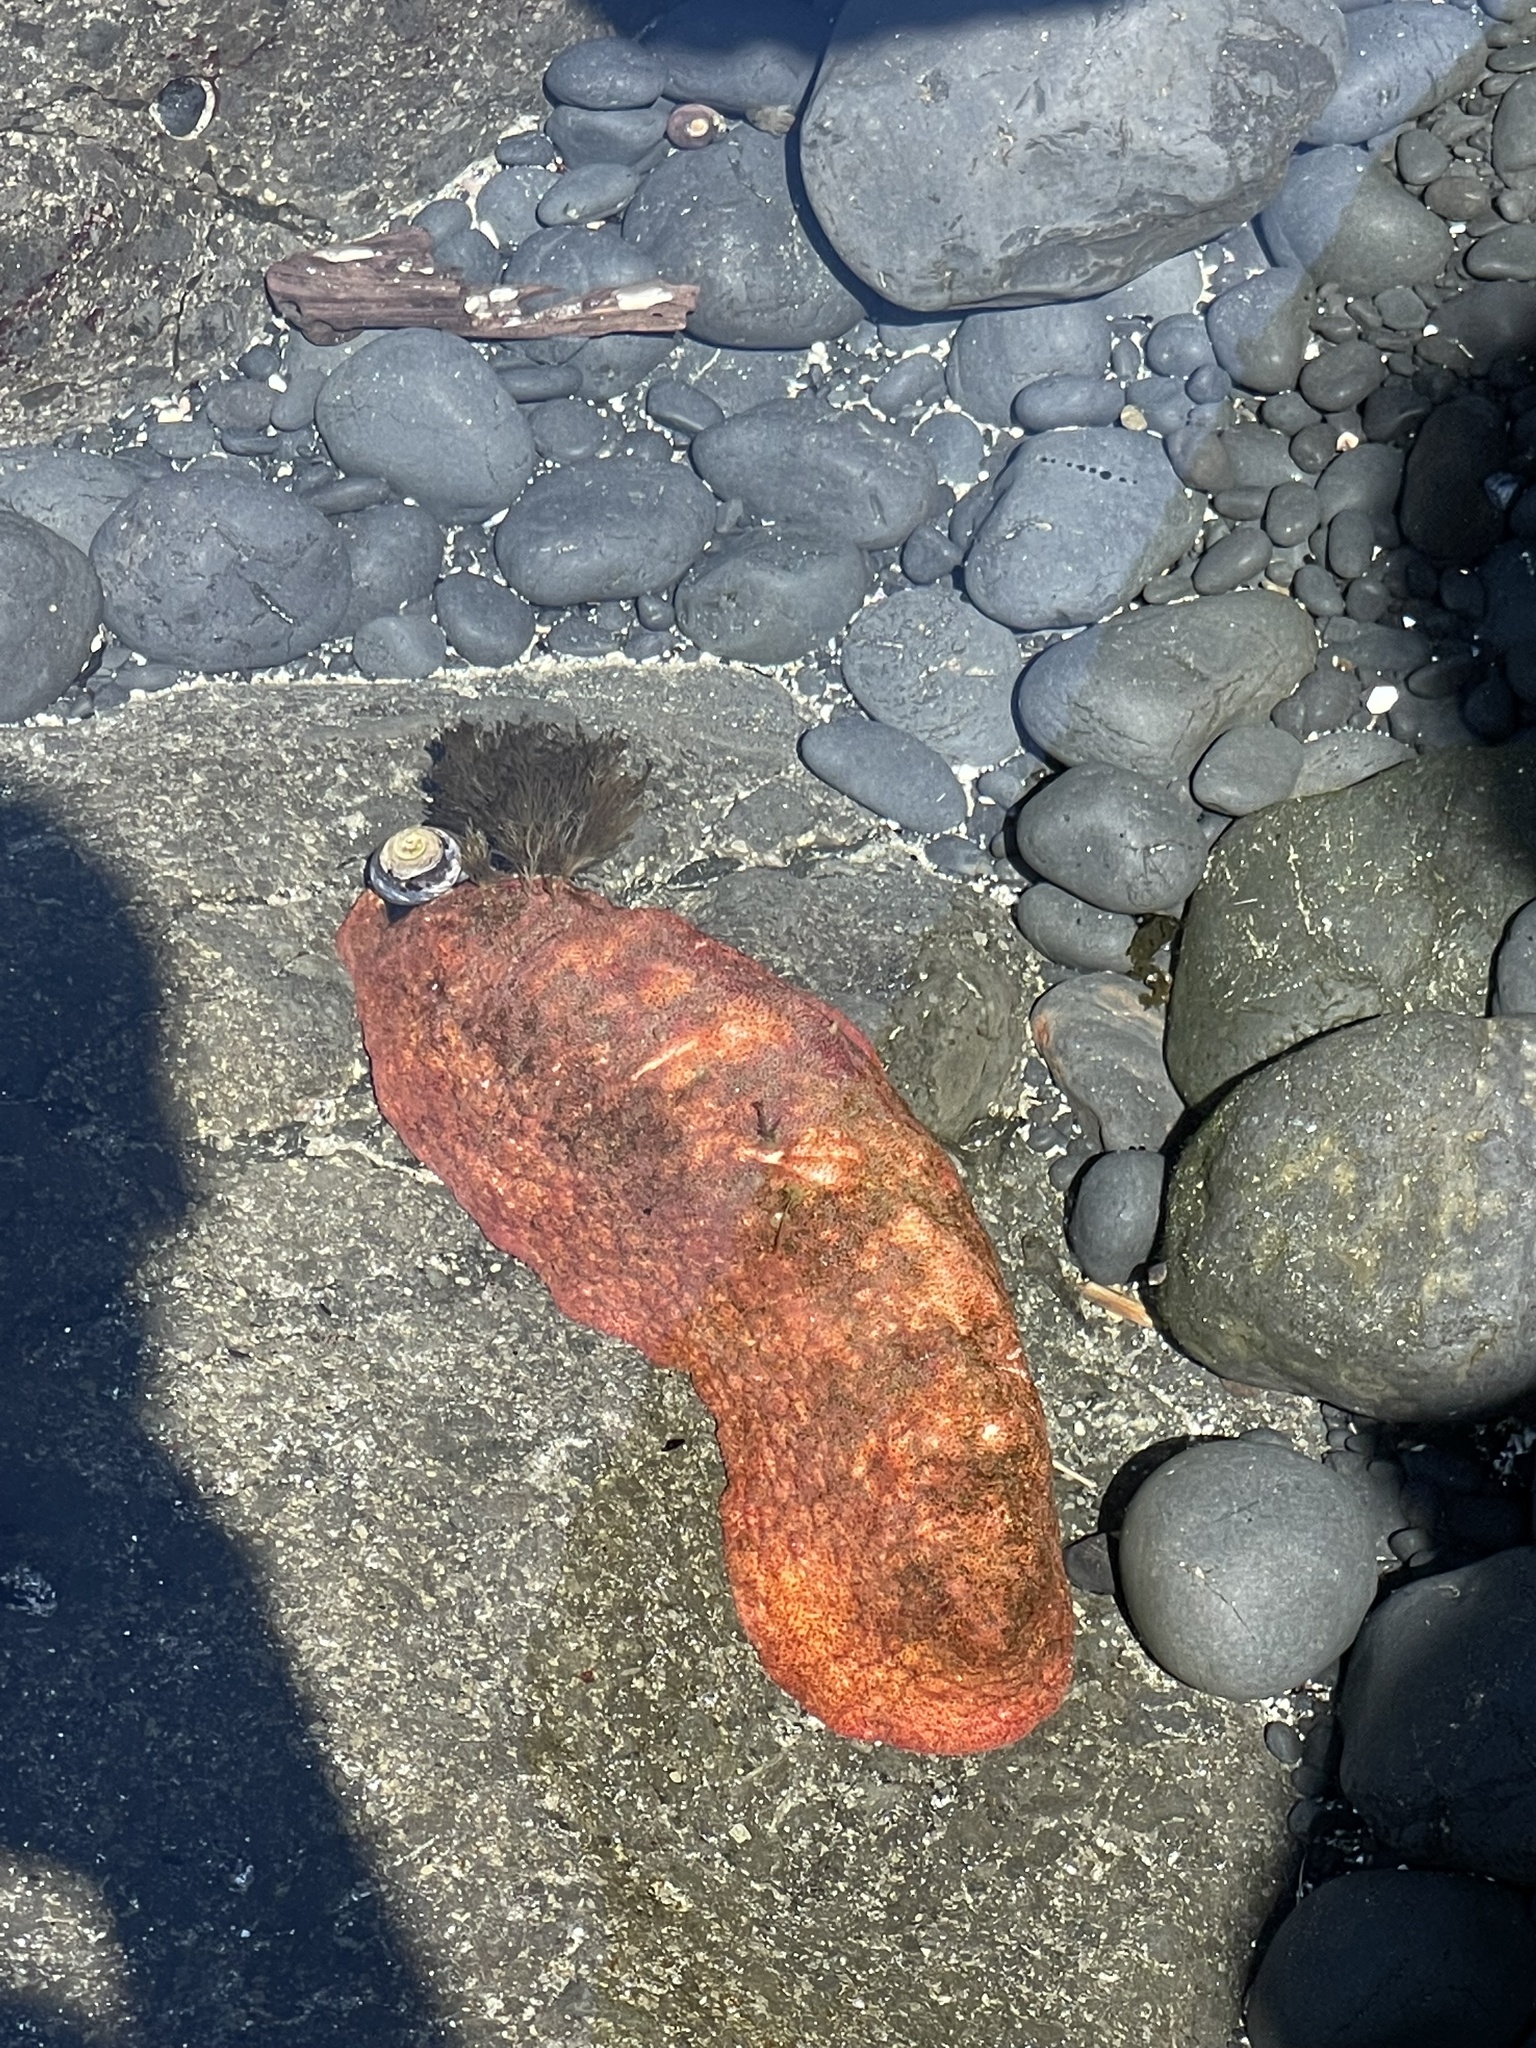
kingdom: Animalia
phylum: Mollusca
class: Polyplacophora
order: Chitonida
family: Acanthochitonidae
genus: Cryptochiton
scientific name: Cryptochiton stelleri
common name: Giant pacific chiton
